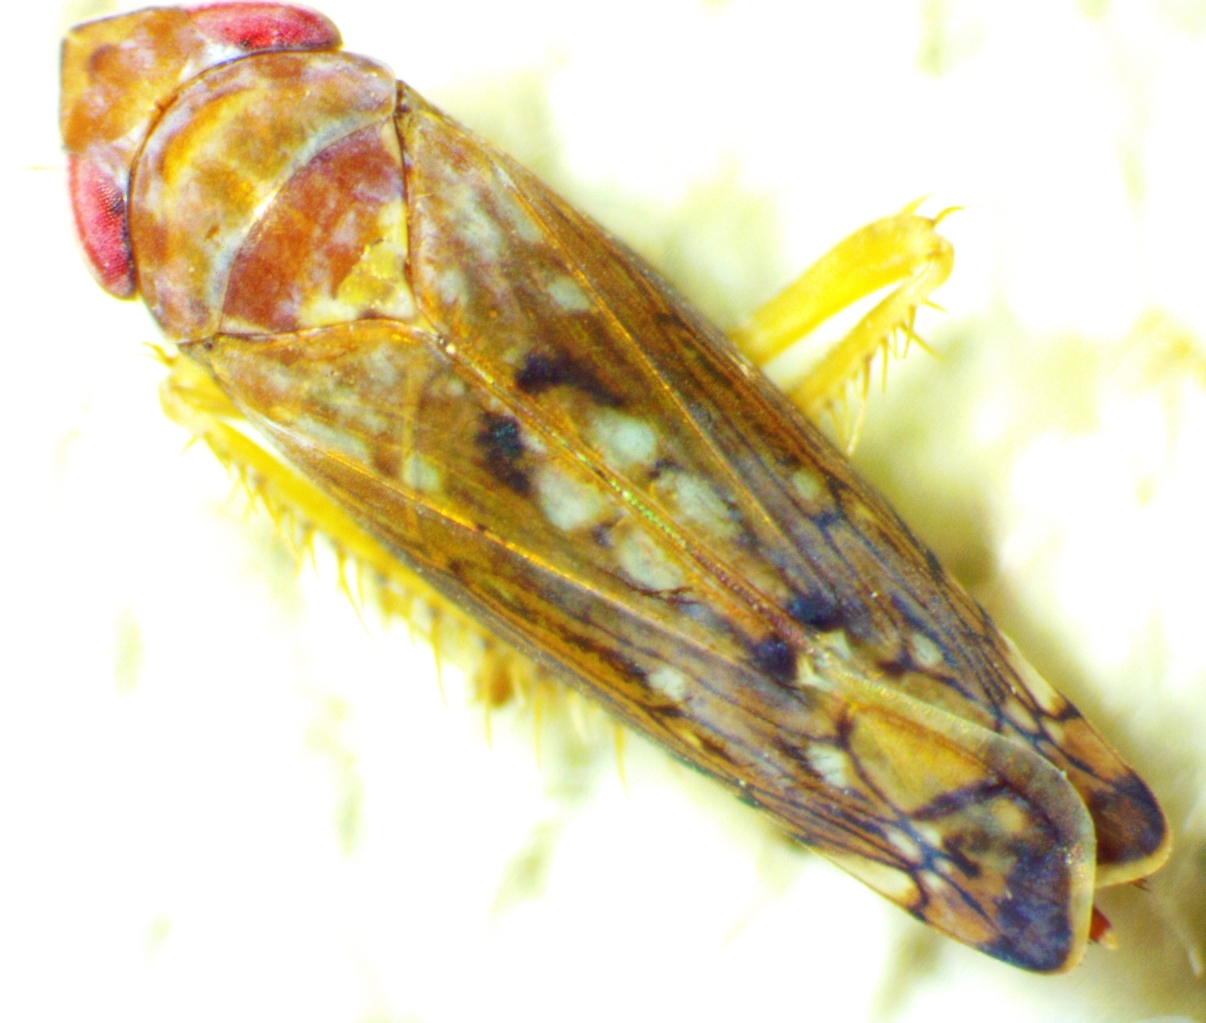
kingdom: Animalia
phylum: Arthropoda
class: Insecta
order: Hemiptera
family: Cicadellidae
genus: Scaphoideus
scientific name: Scaphoideus luteolus
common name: Whitebanded elm leafhopper
